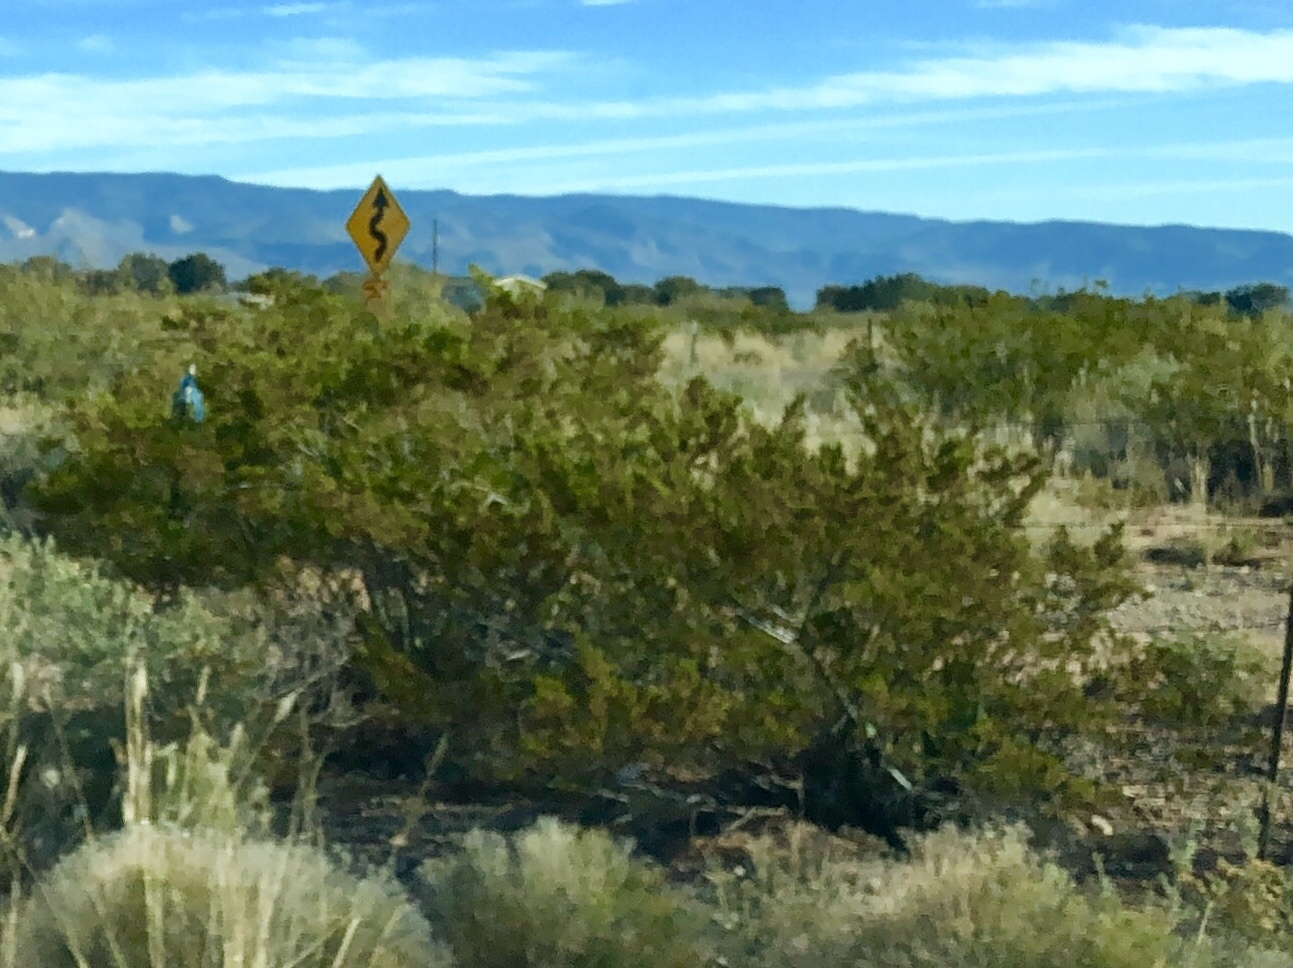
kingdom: Plantae
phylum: Tracheophyta
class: Magnoliopsida
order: Zygophyllales
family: Zygophyllaceae
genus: Larrea
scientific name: Larrea tridentata
